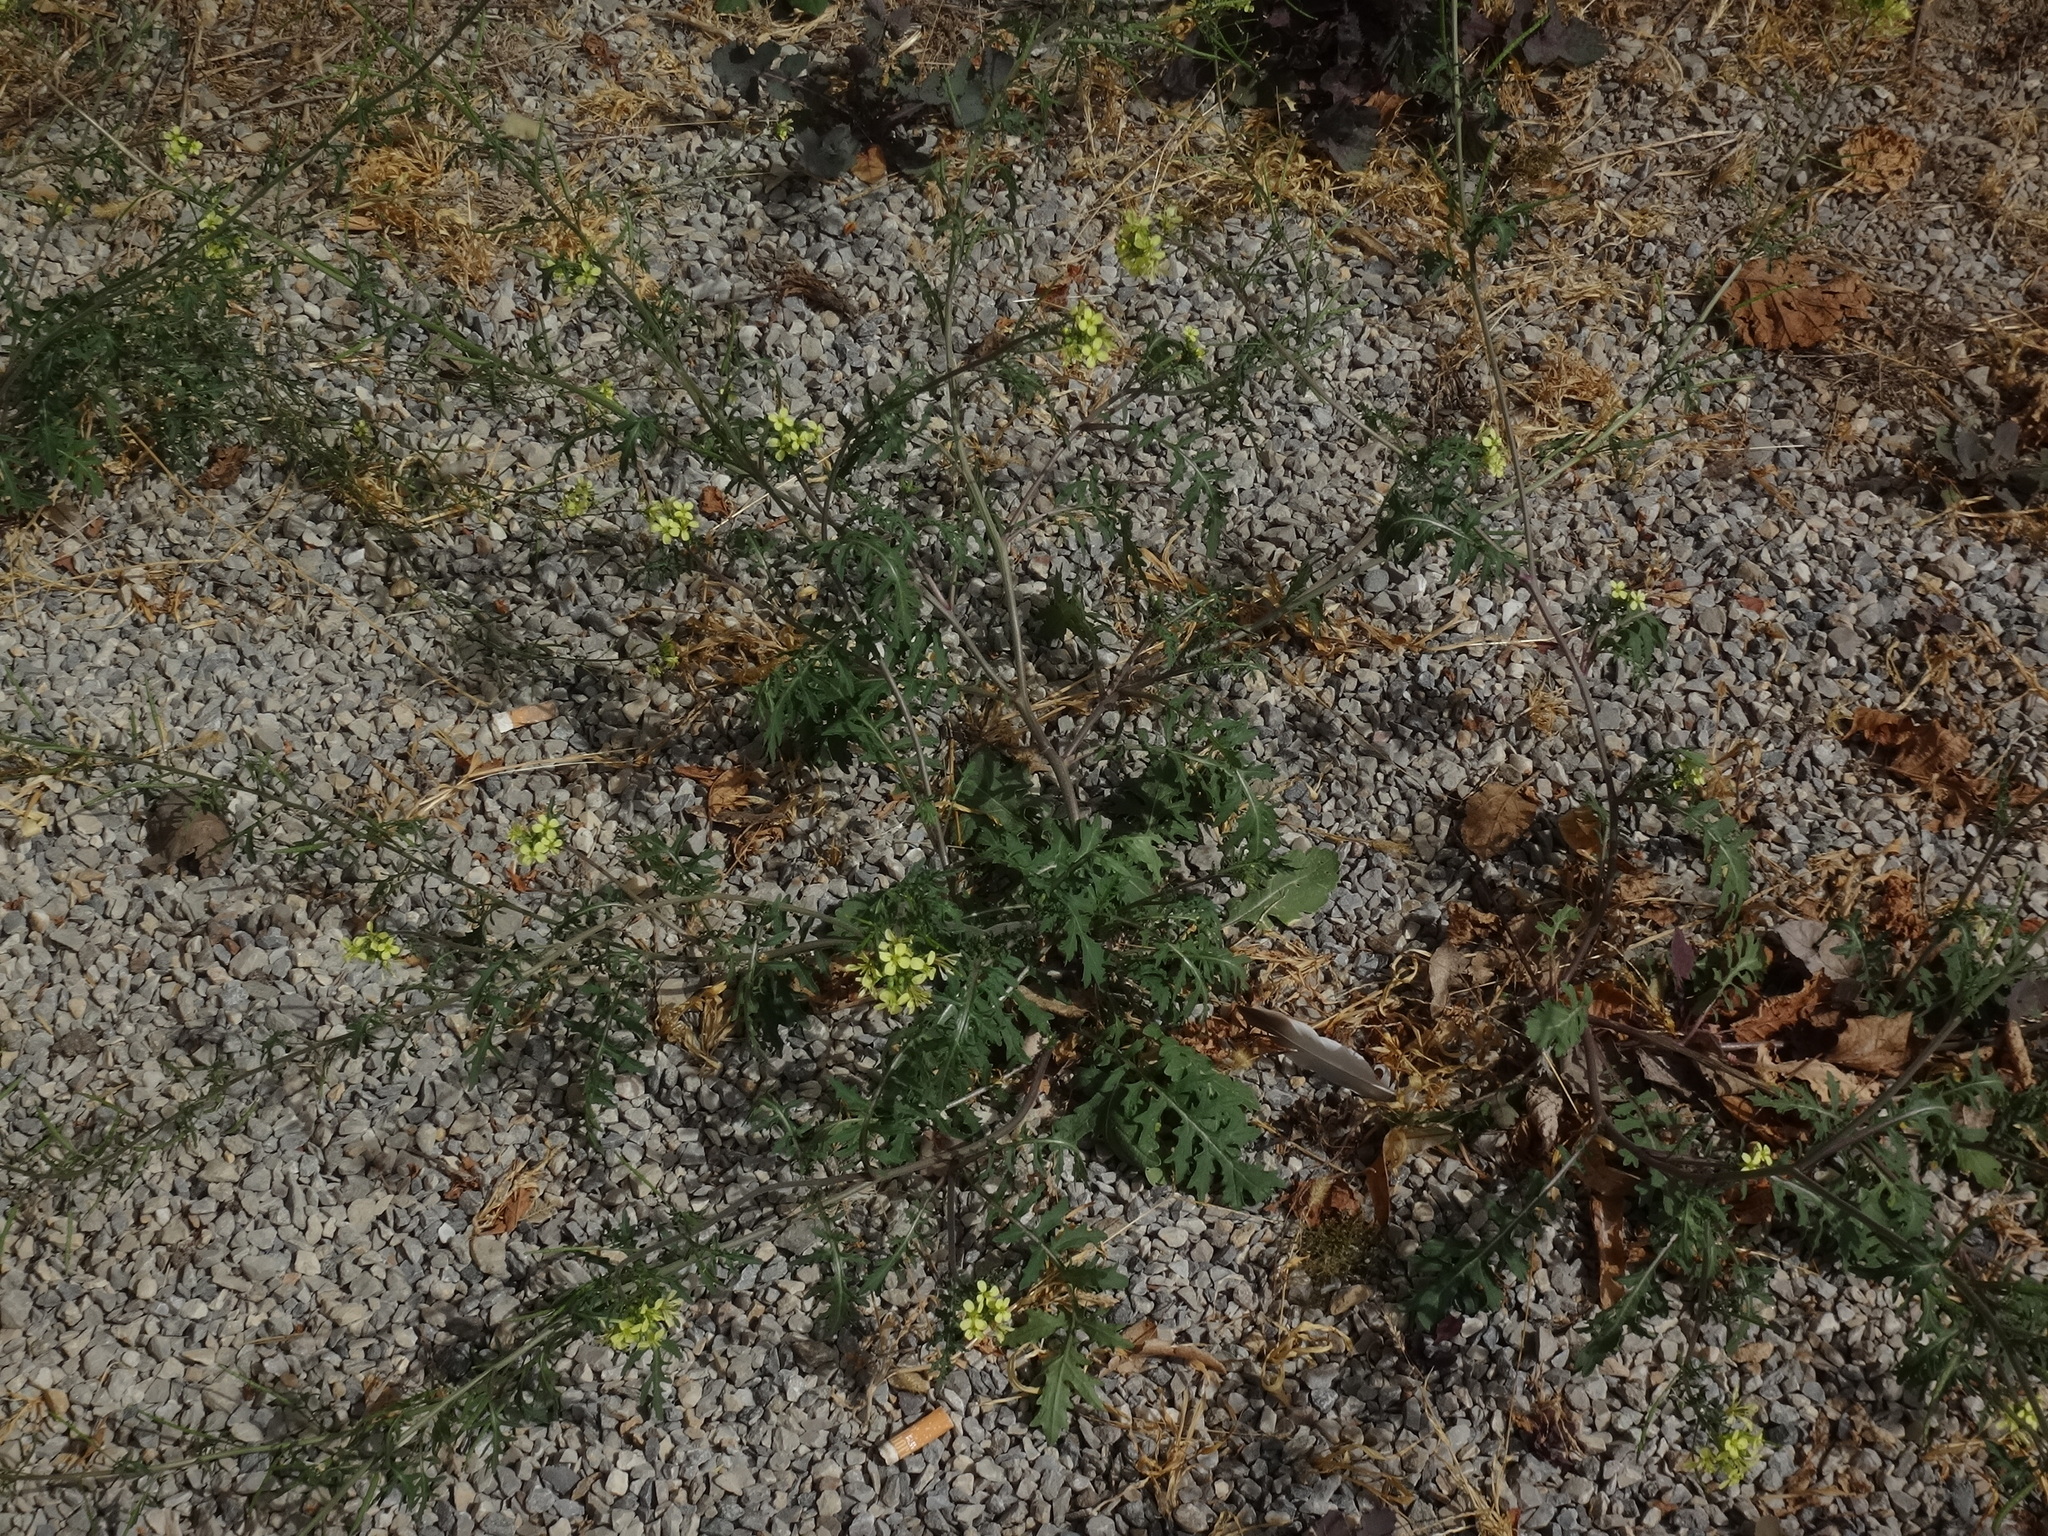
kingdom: Plantae
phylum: Tracheophyta
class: Magnoliopsida
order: Brassicales
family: Brassicaceae
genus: Erucastrum
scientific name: Erucastrum nasturtiifolium
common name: Watercress-leaf rocket
